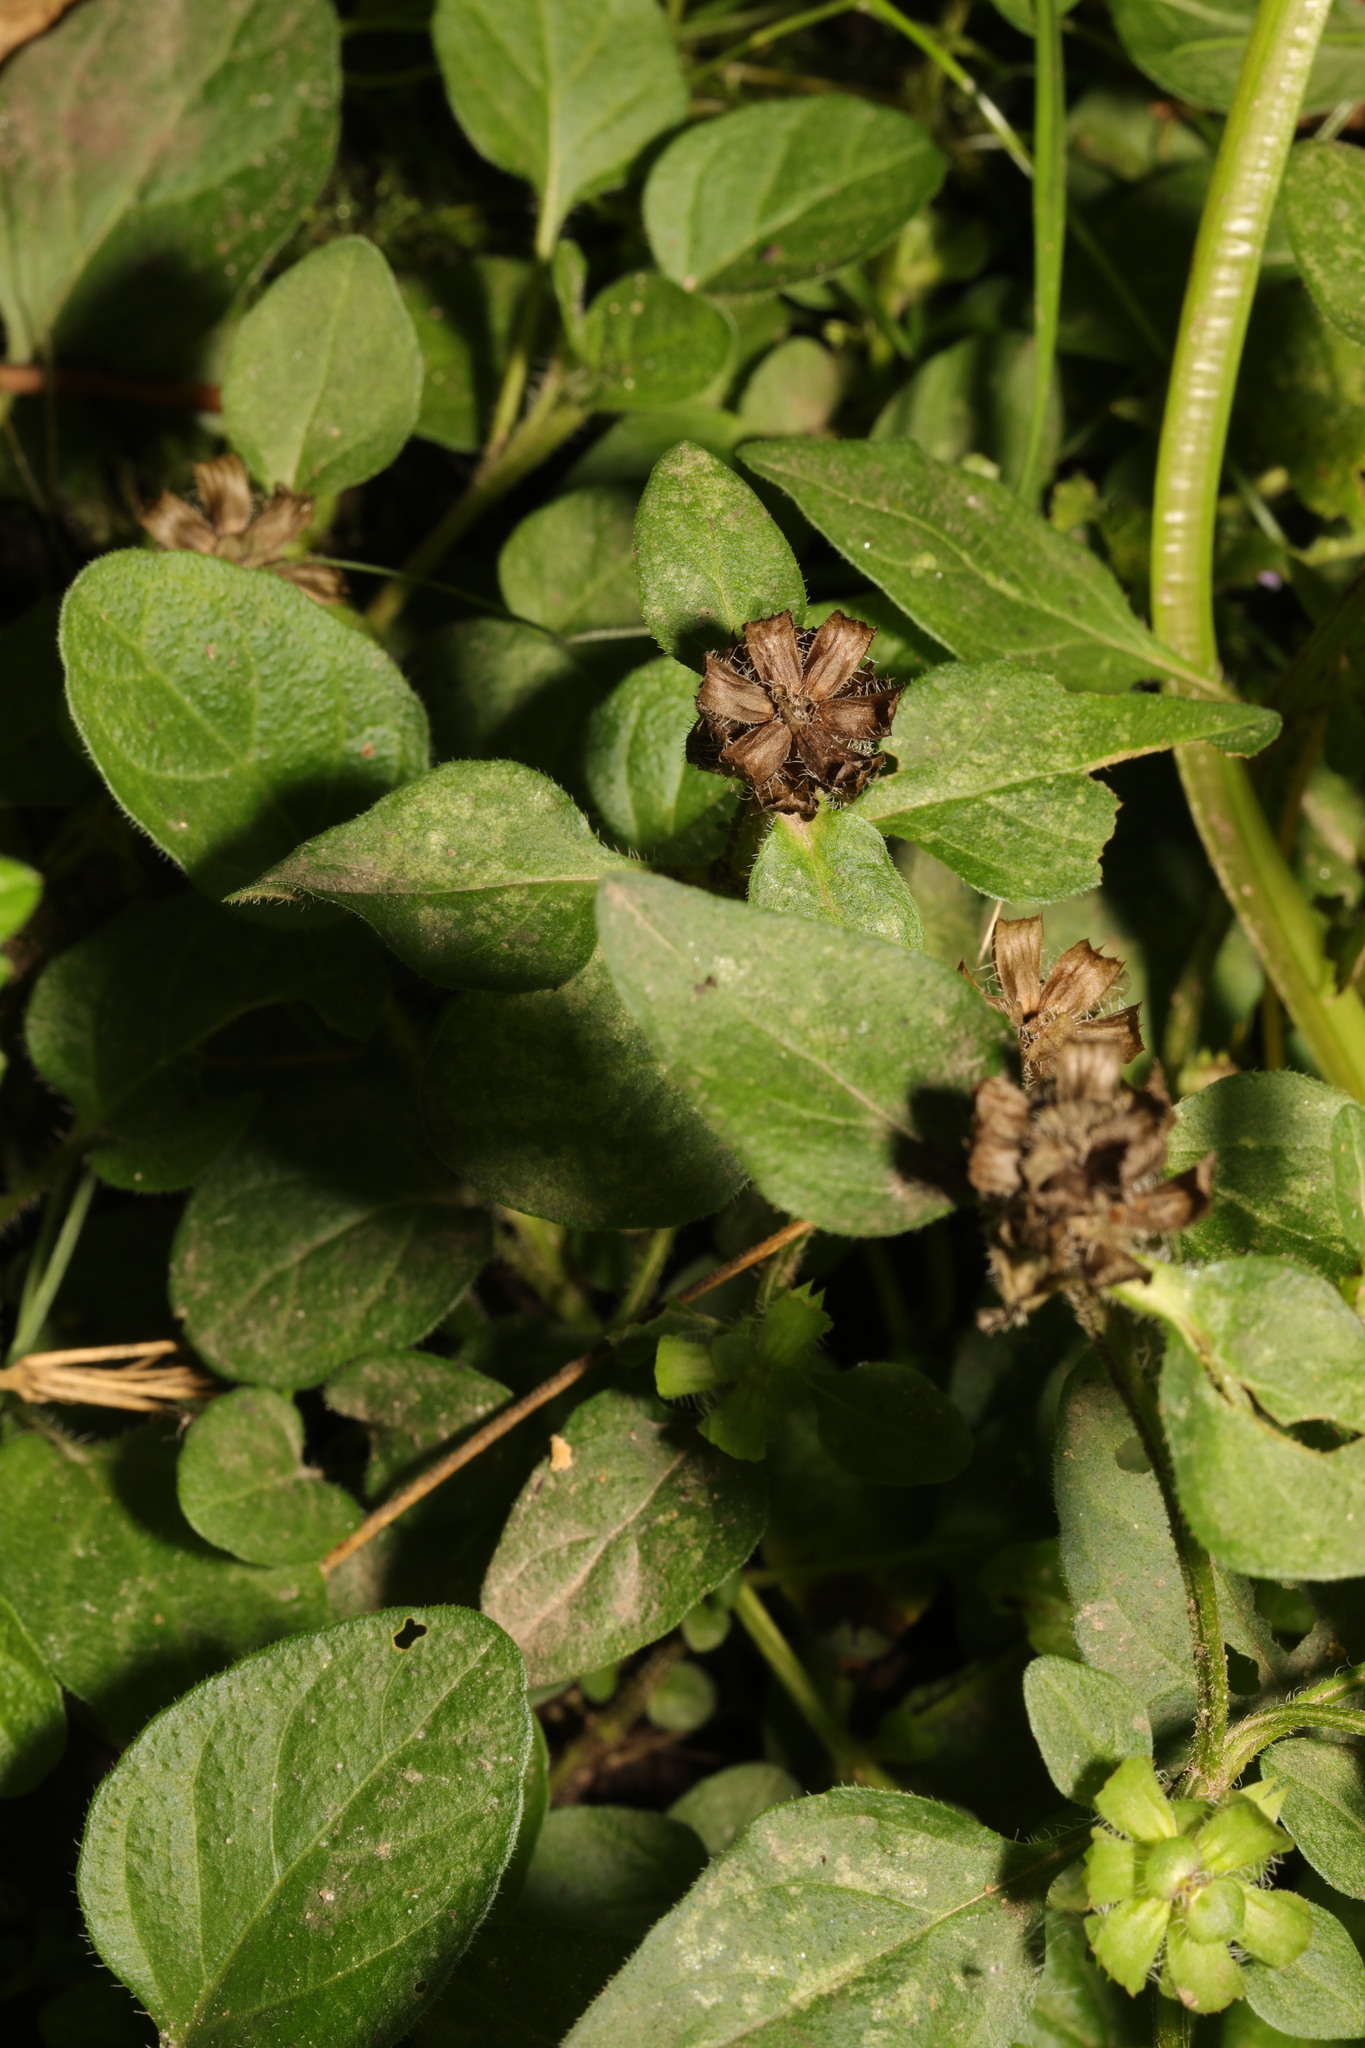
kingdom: Plantae
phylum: Tracheophyta
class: Magnoliopsida
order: Lamiales
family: Lamiaceae
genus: Prunella
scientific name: Prunella vulgaris
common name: Heal-all
